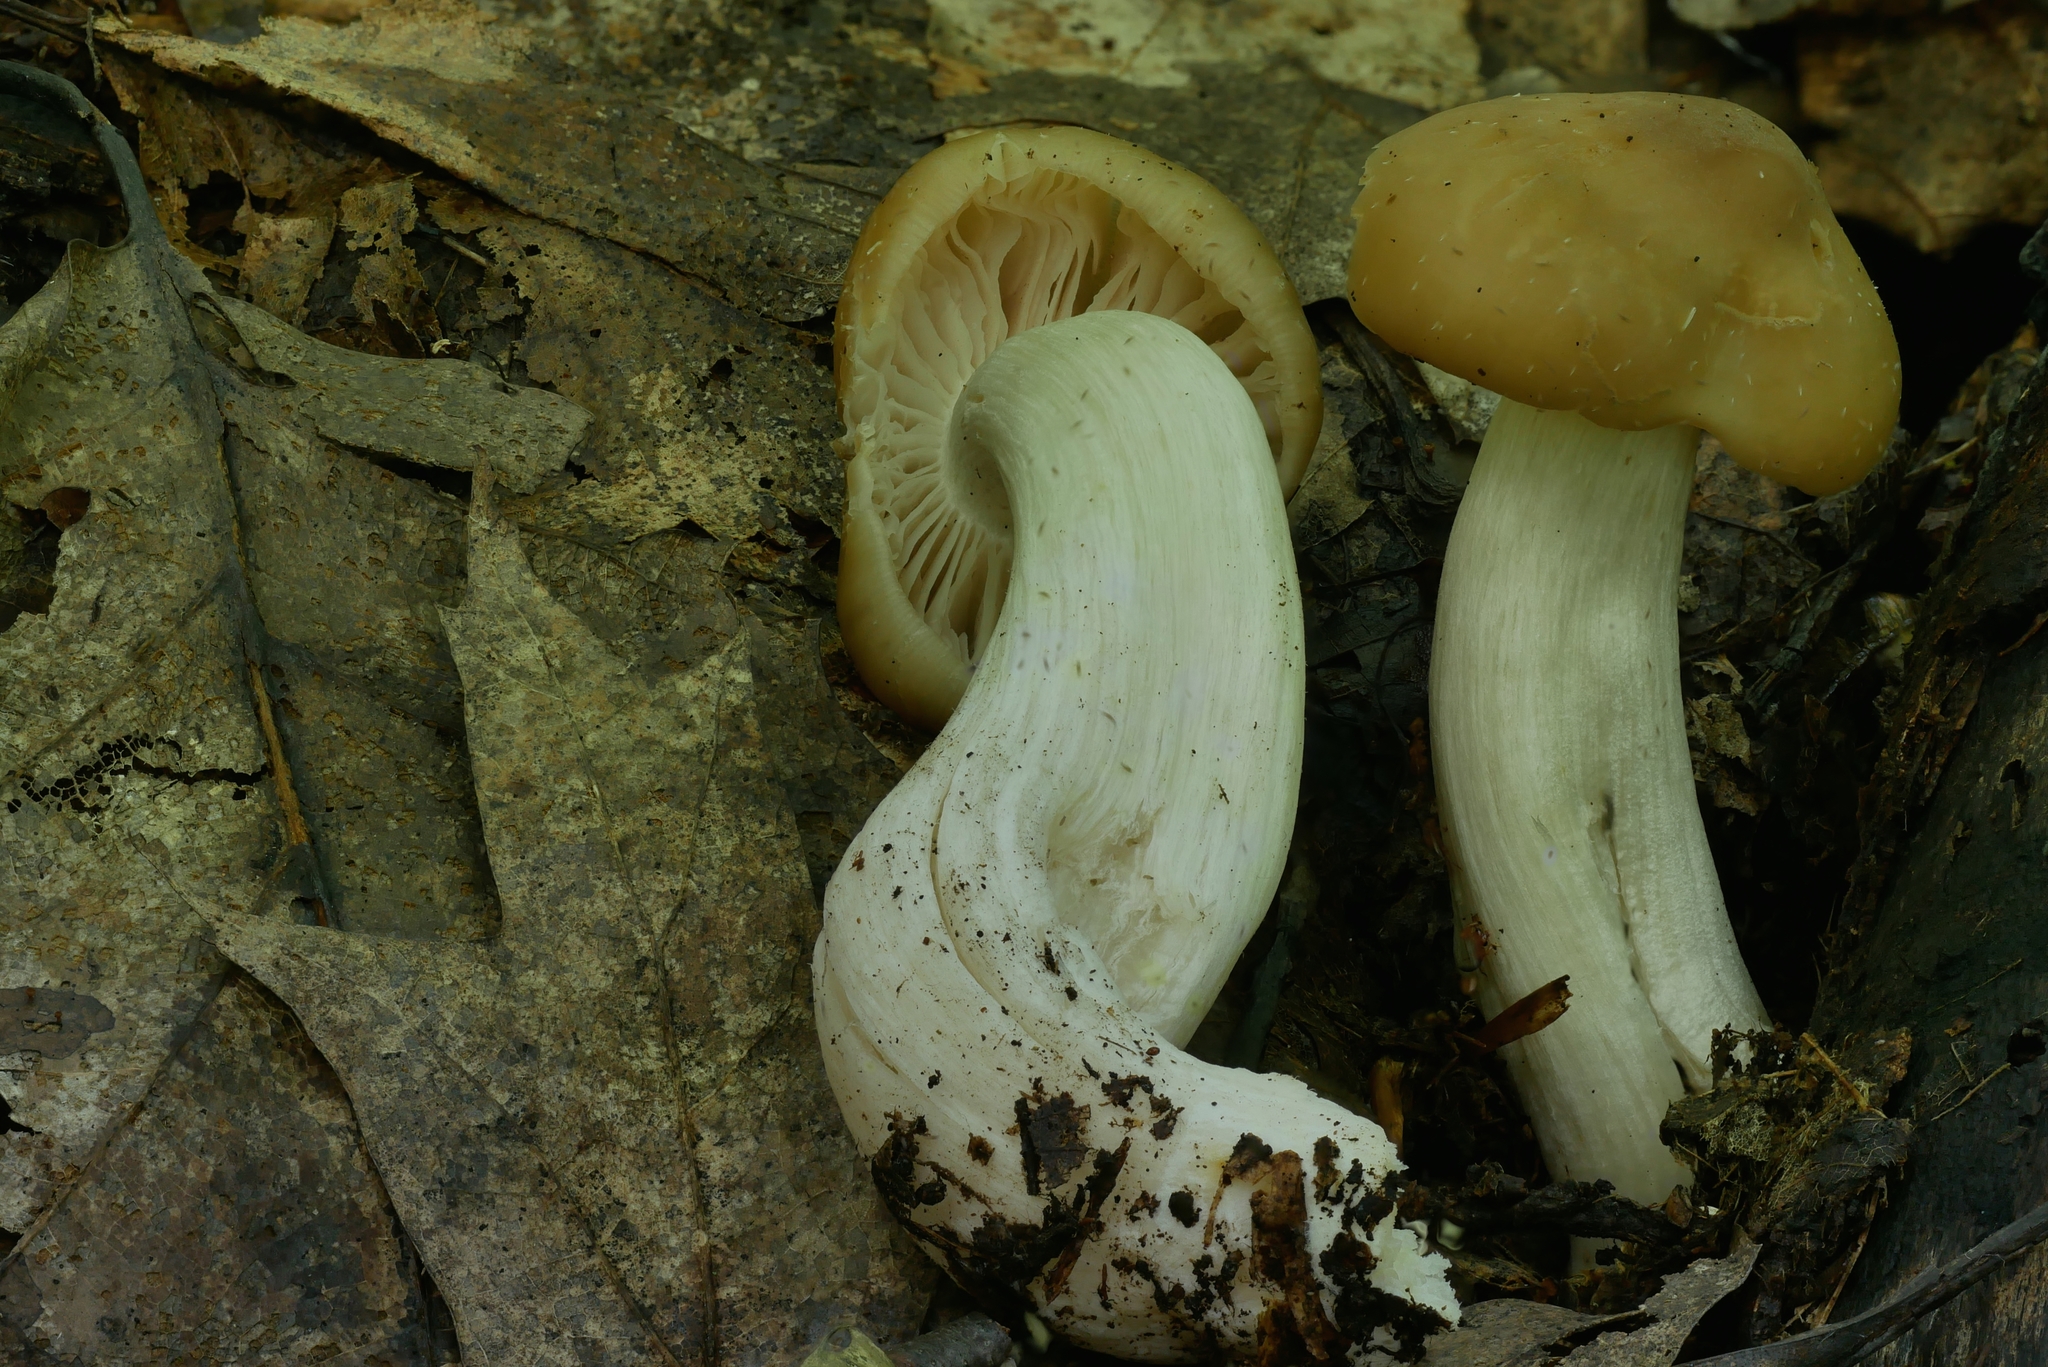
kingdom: Fungi
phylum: Basidiomycota
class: Agaricomycetes
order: Agaricales
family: Entolomataceae
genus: Entoloma
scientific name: Entoloma bicolor
